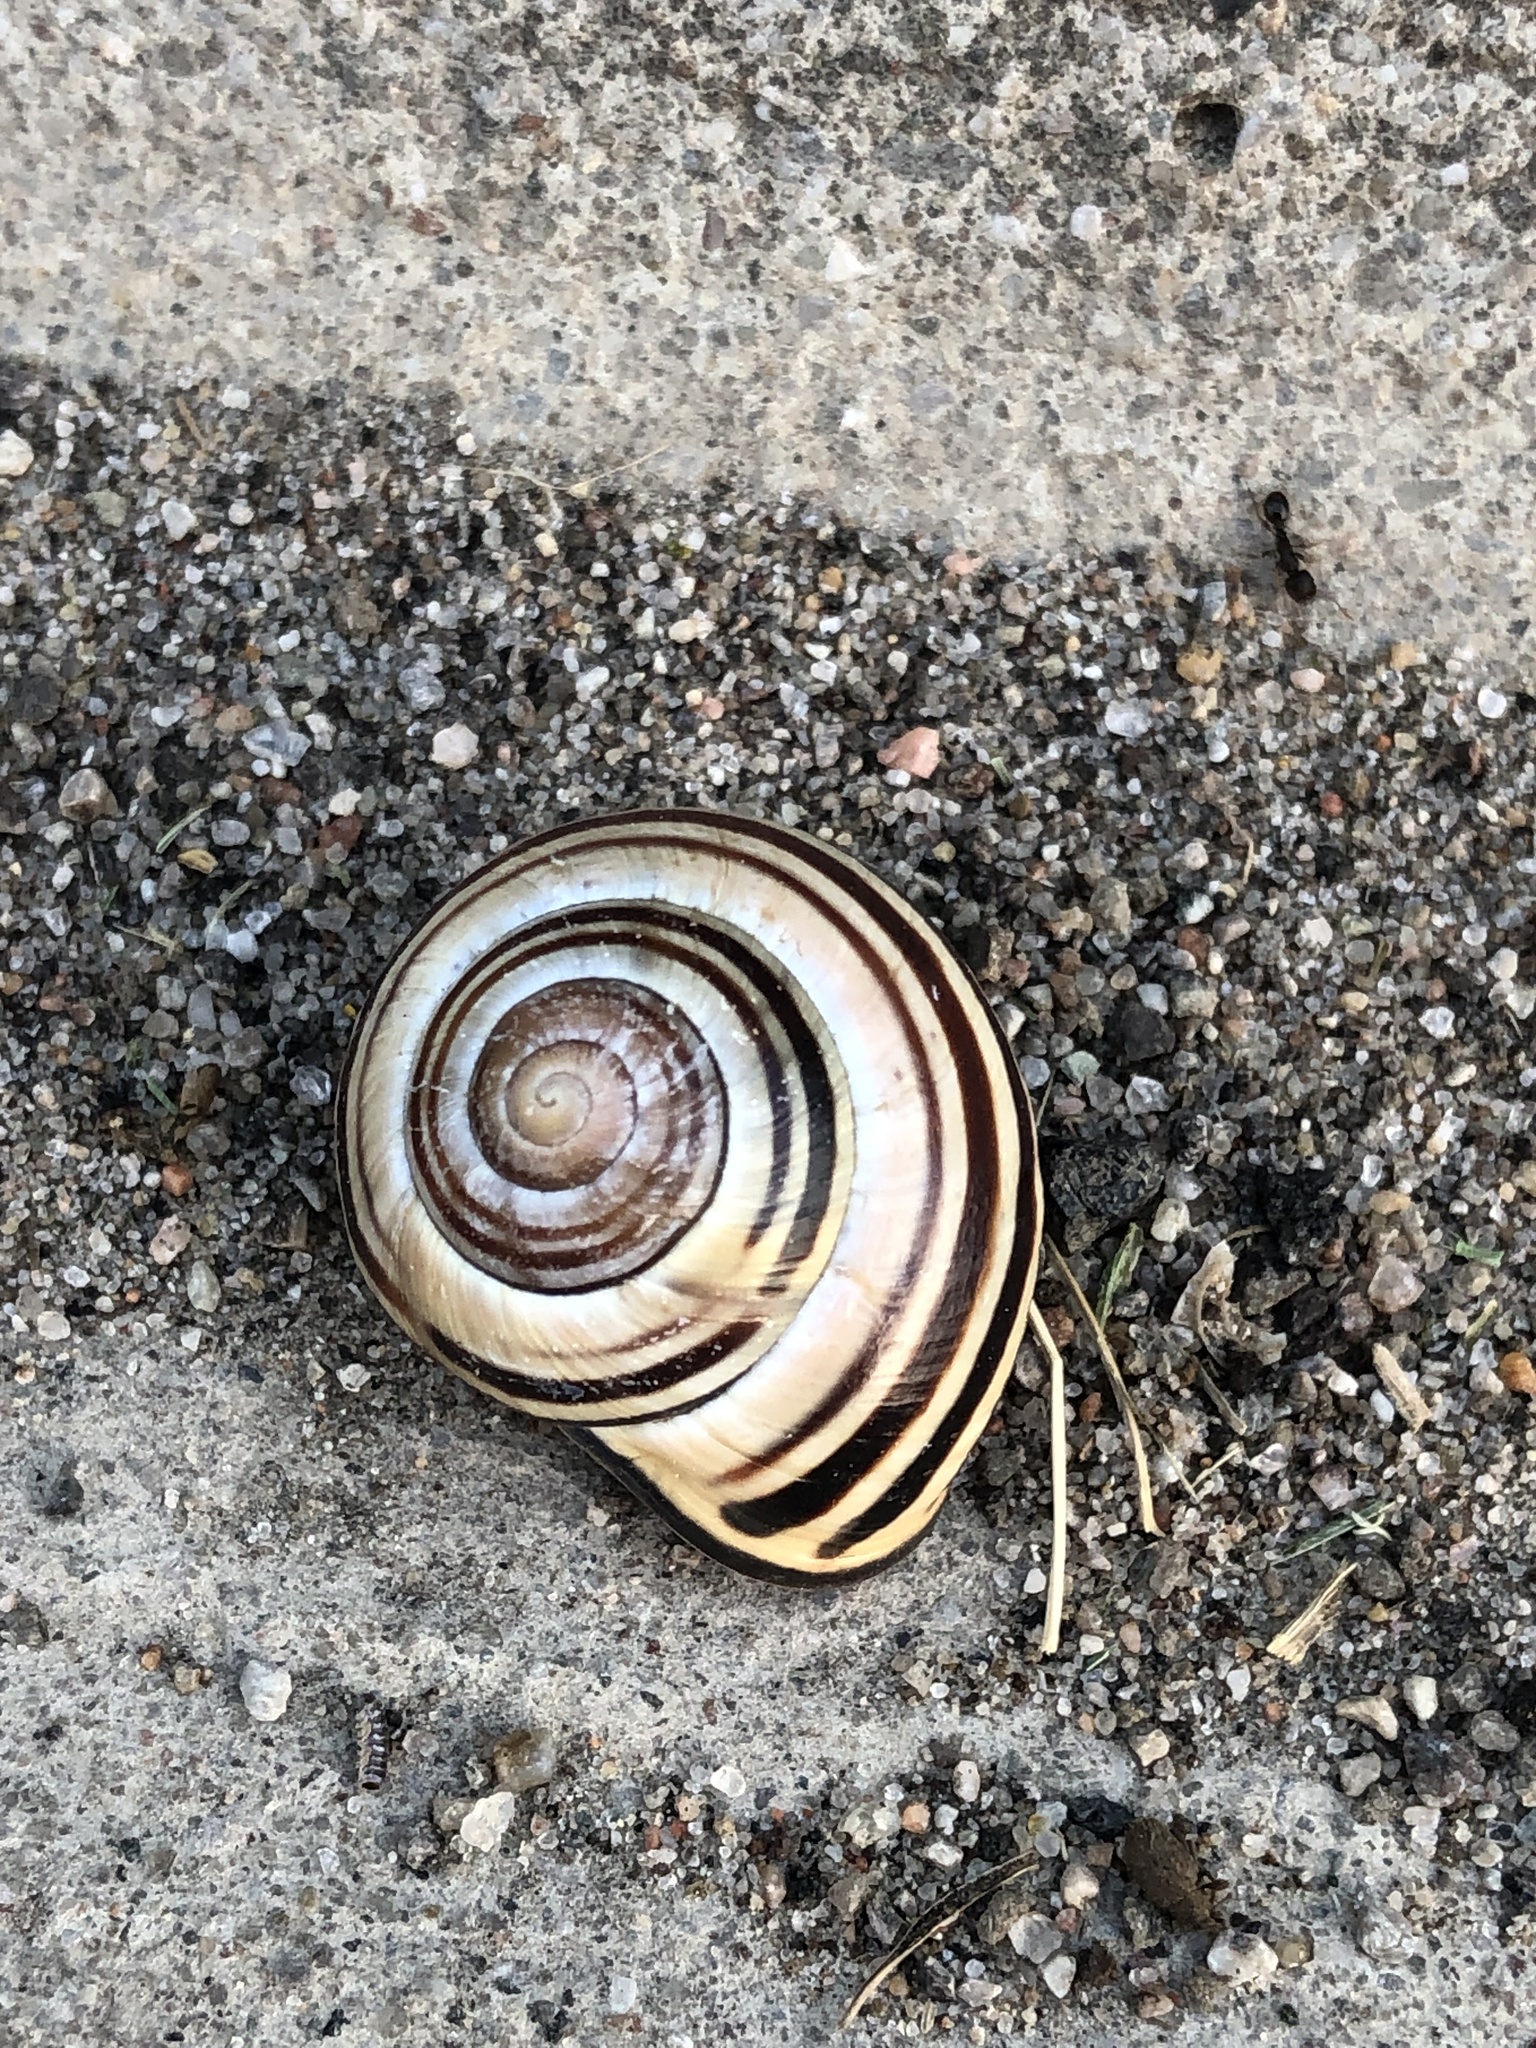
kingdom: Animalia
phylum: Mollusca
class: Gastropoda
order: Stylommatophora
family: Helicidae
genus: Cepaea
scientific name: Cepaea nemoralis
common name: Grovesnail
